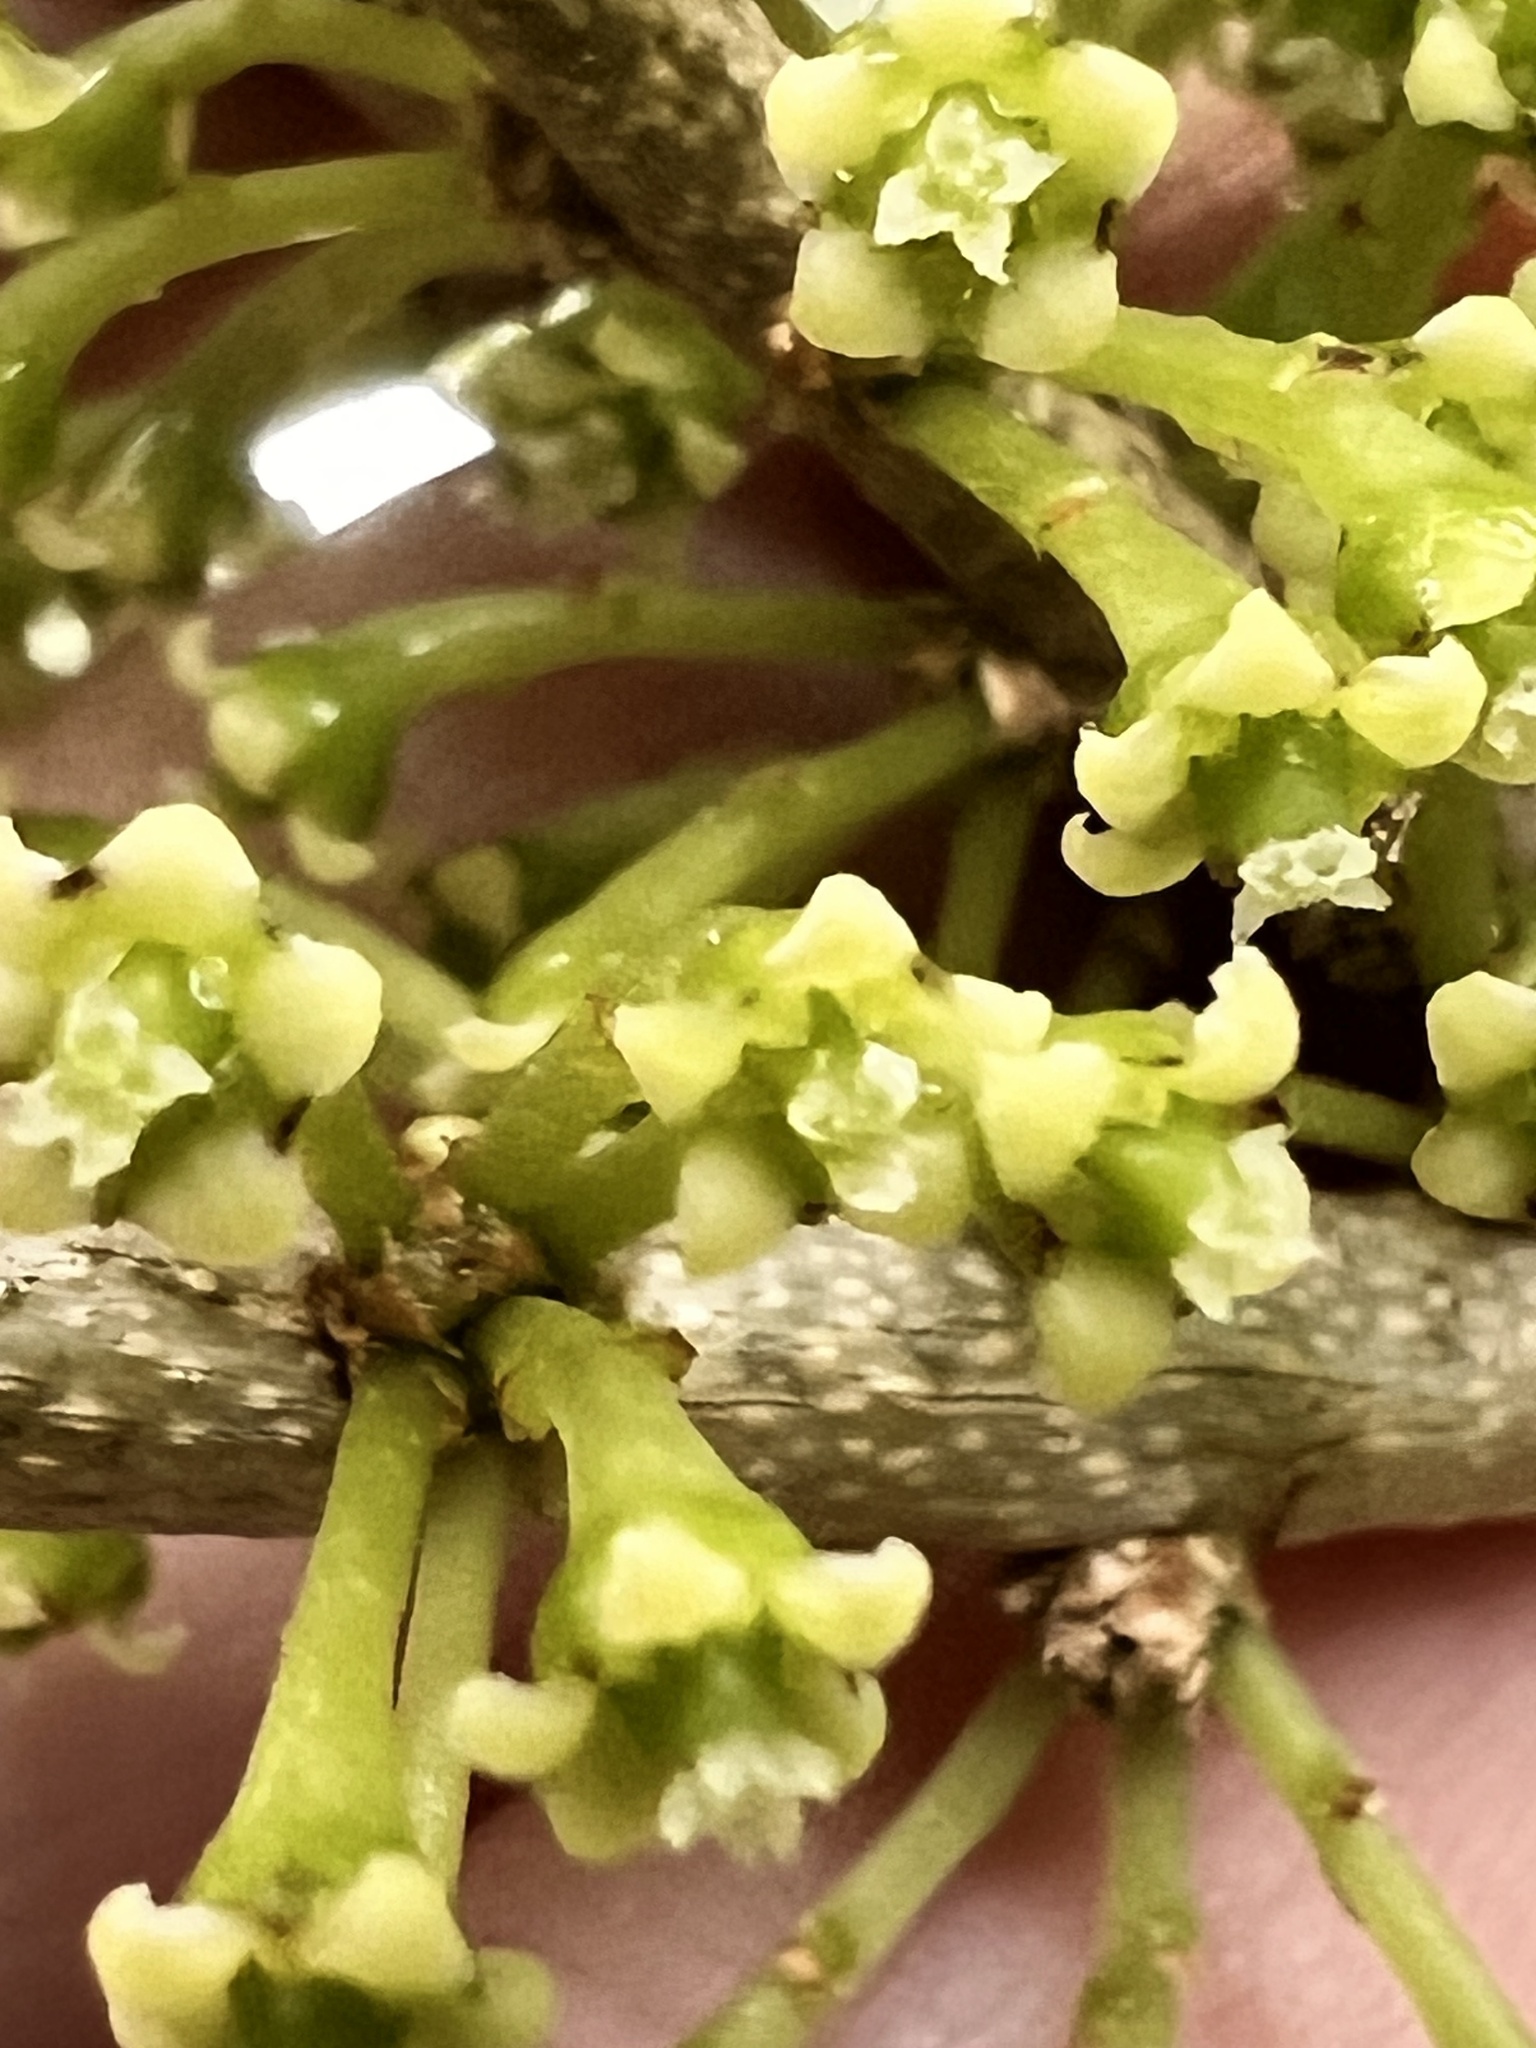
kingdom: Plantae
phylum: Tracheophyta
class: Magnoliopsida
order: Malpighiales
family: Violaceae
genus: Melicytus
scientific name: Melicytus ramiflorus
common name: Mahoe
